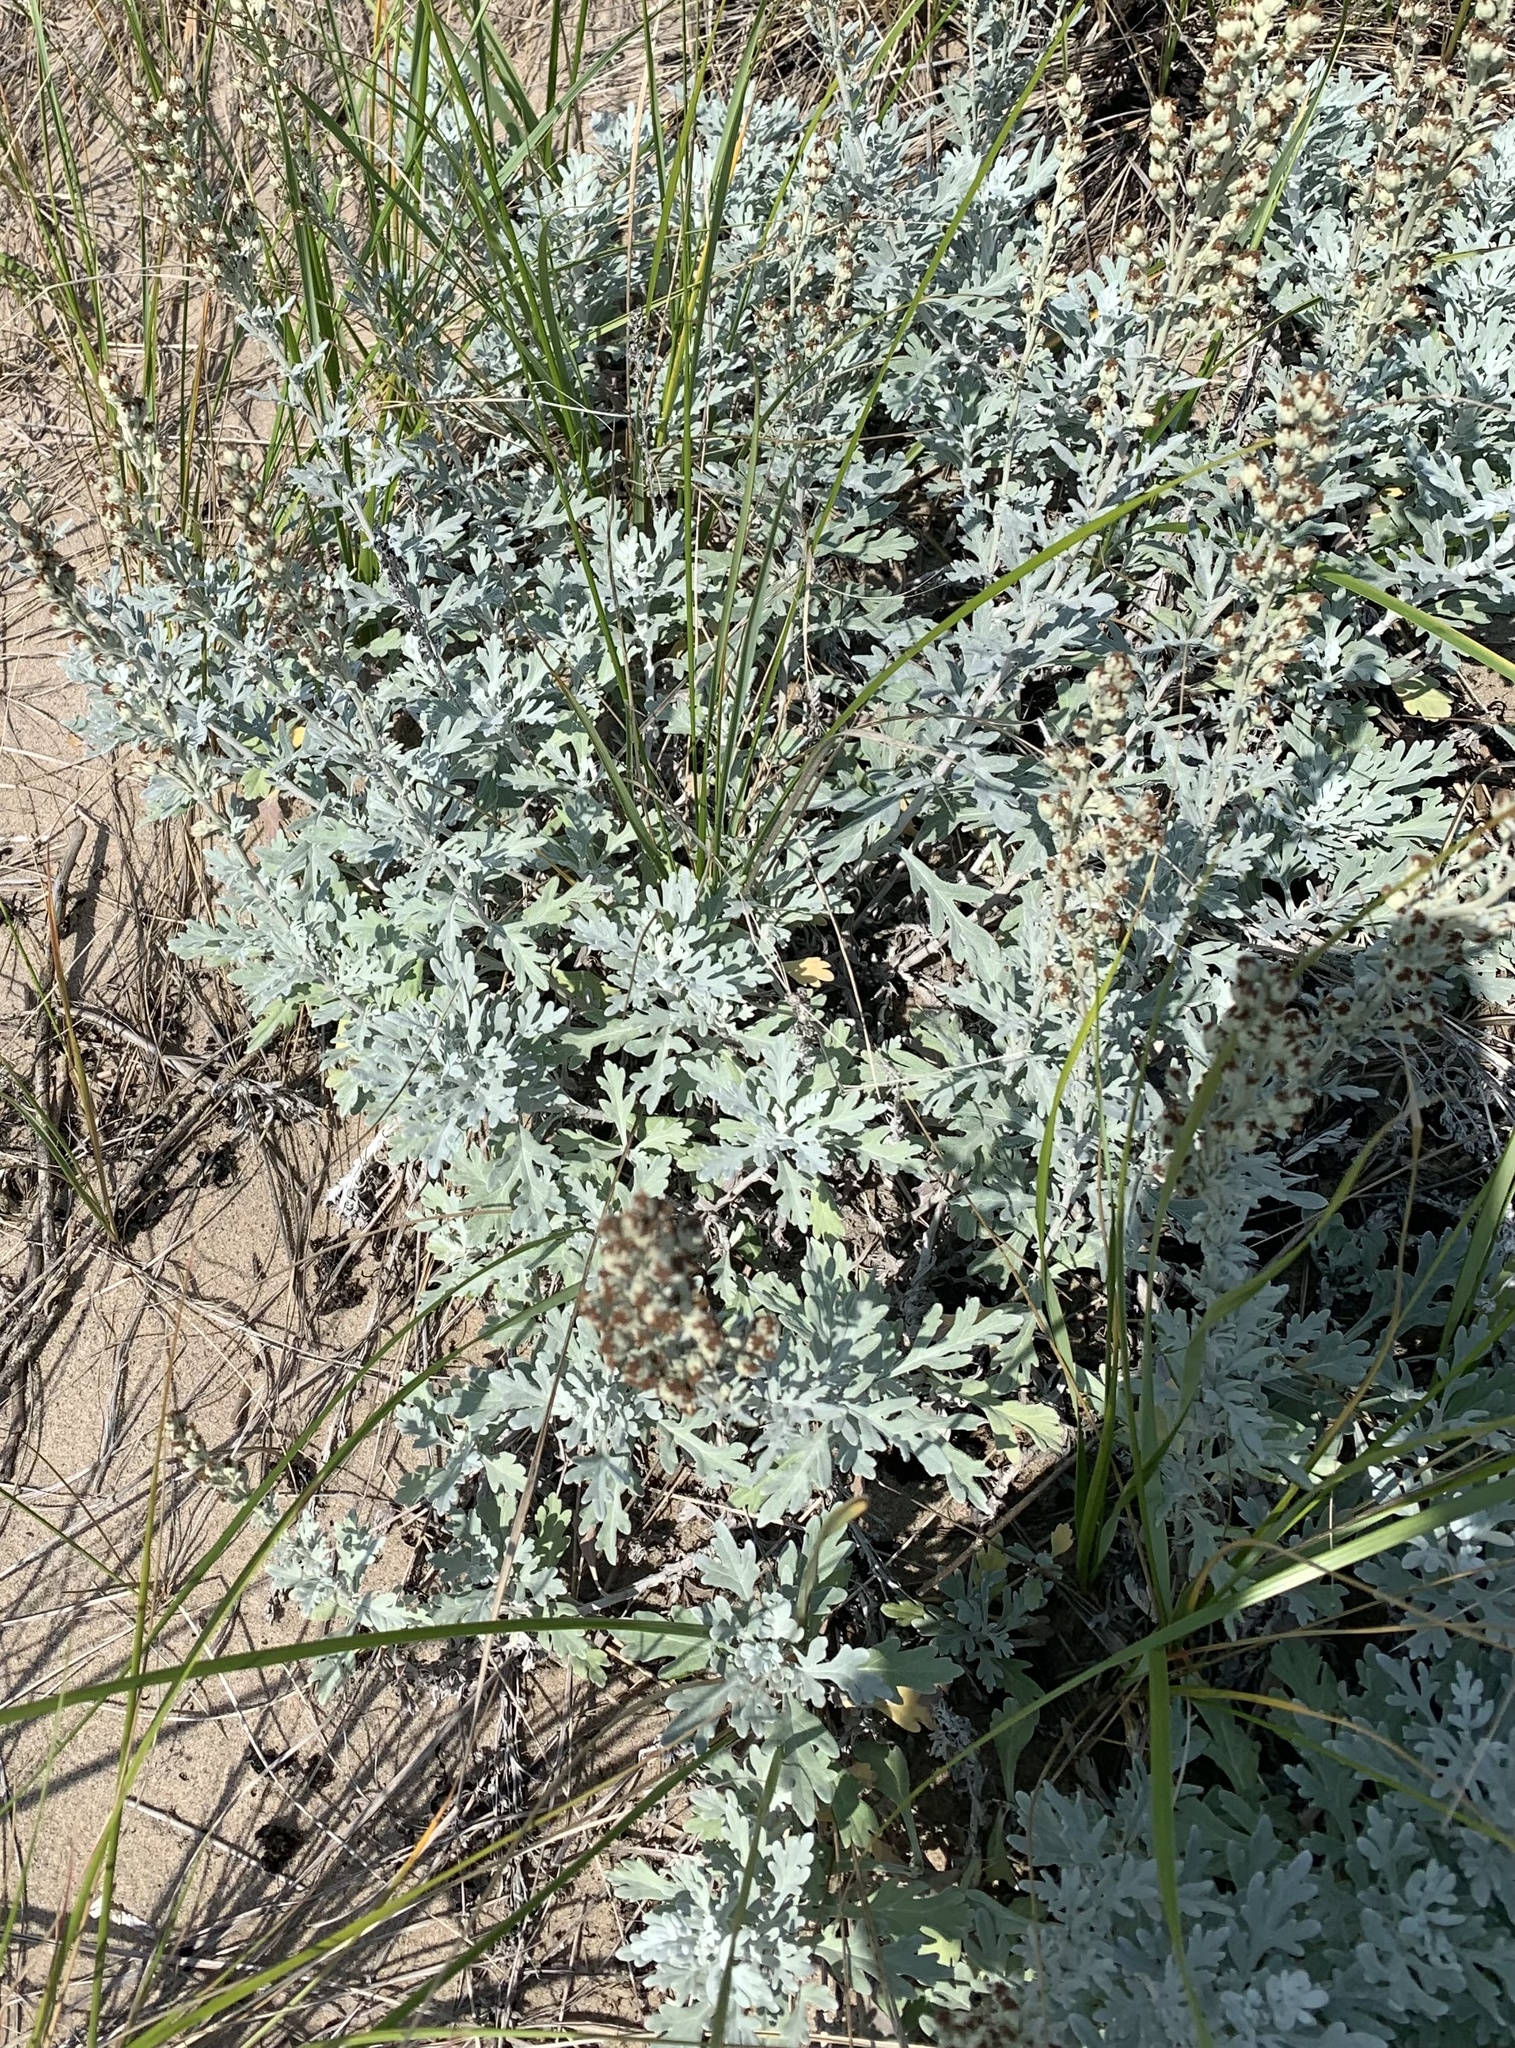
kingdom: Plantae
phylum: Tracheophyta
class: Magnoliopsida
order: Asterales
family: Asteraceae
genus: Artemisia
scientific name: Artemisia stelleriana
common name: Beach wormwood
